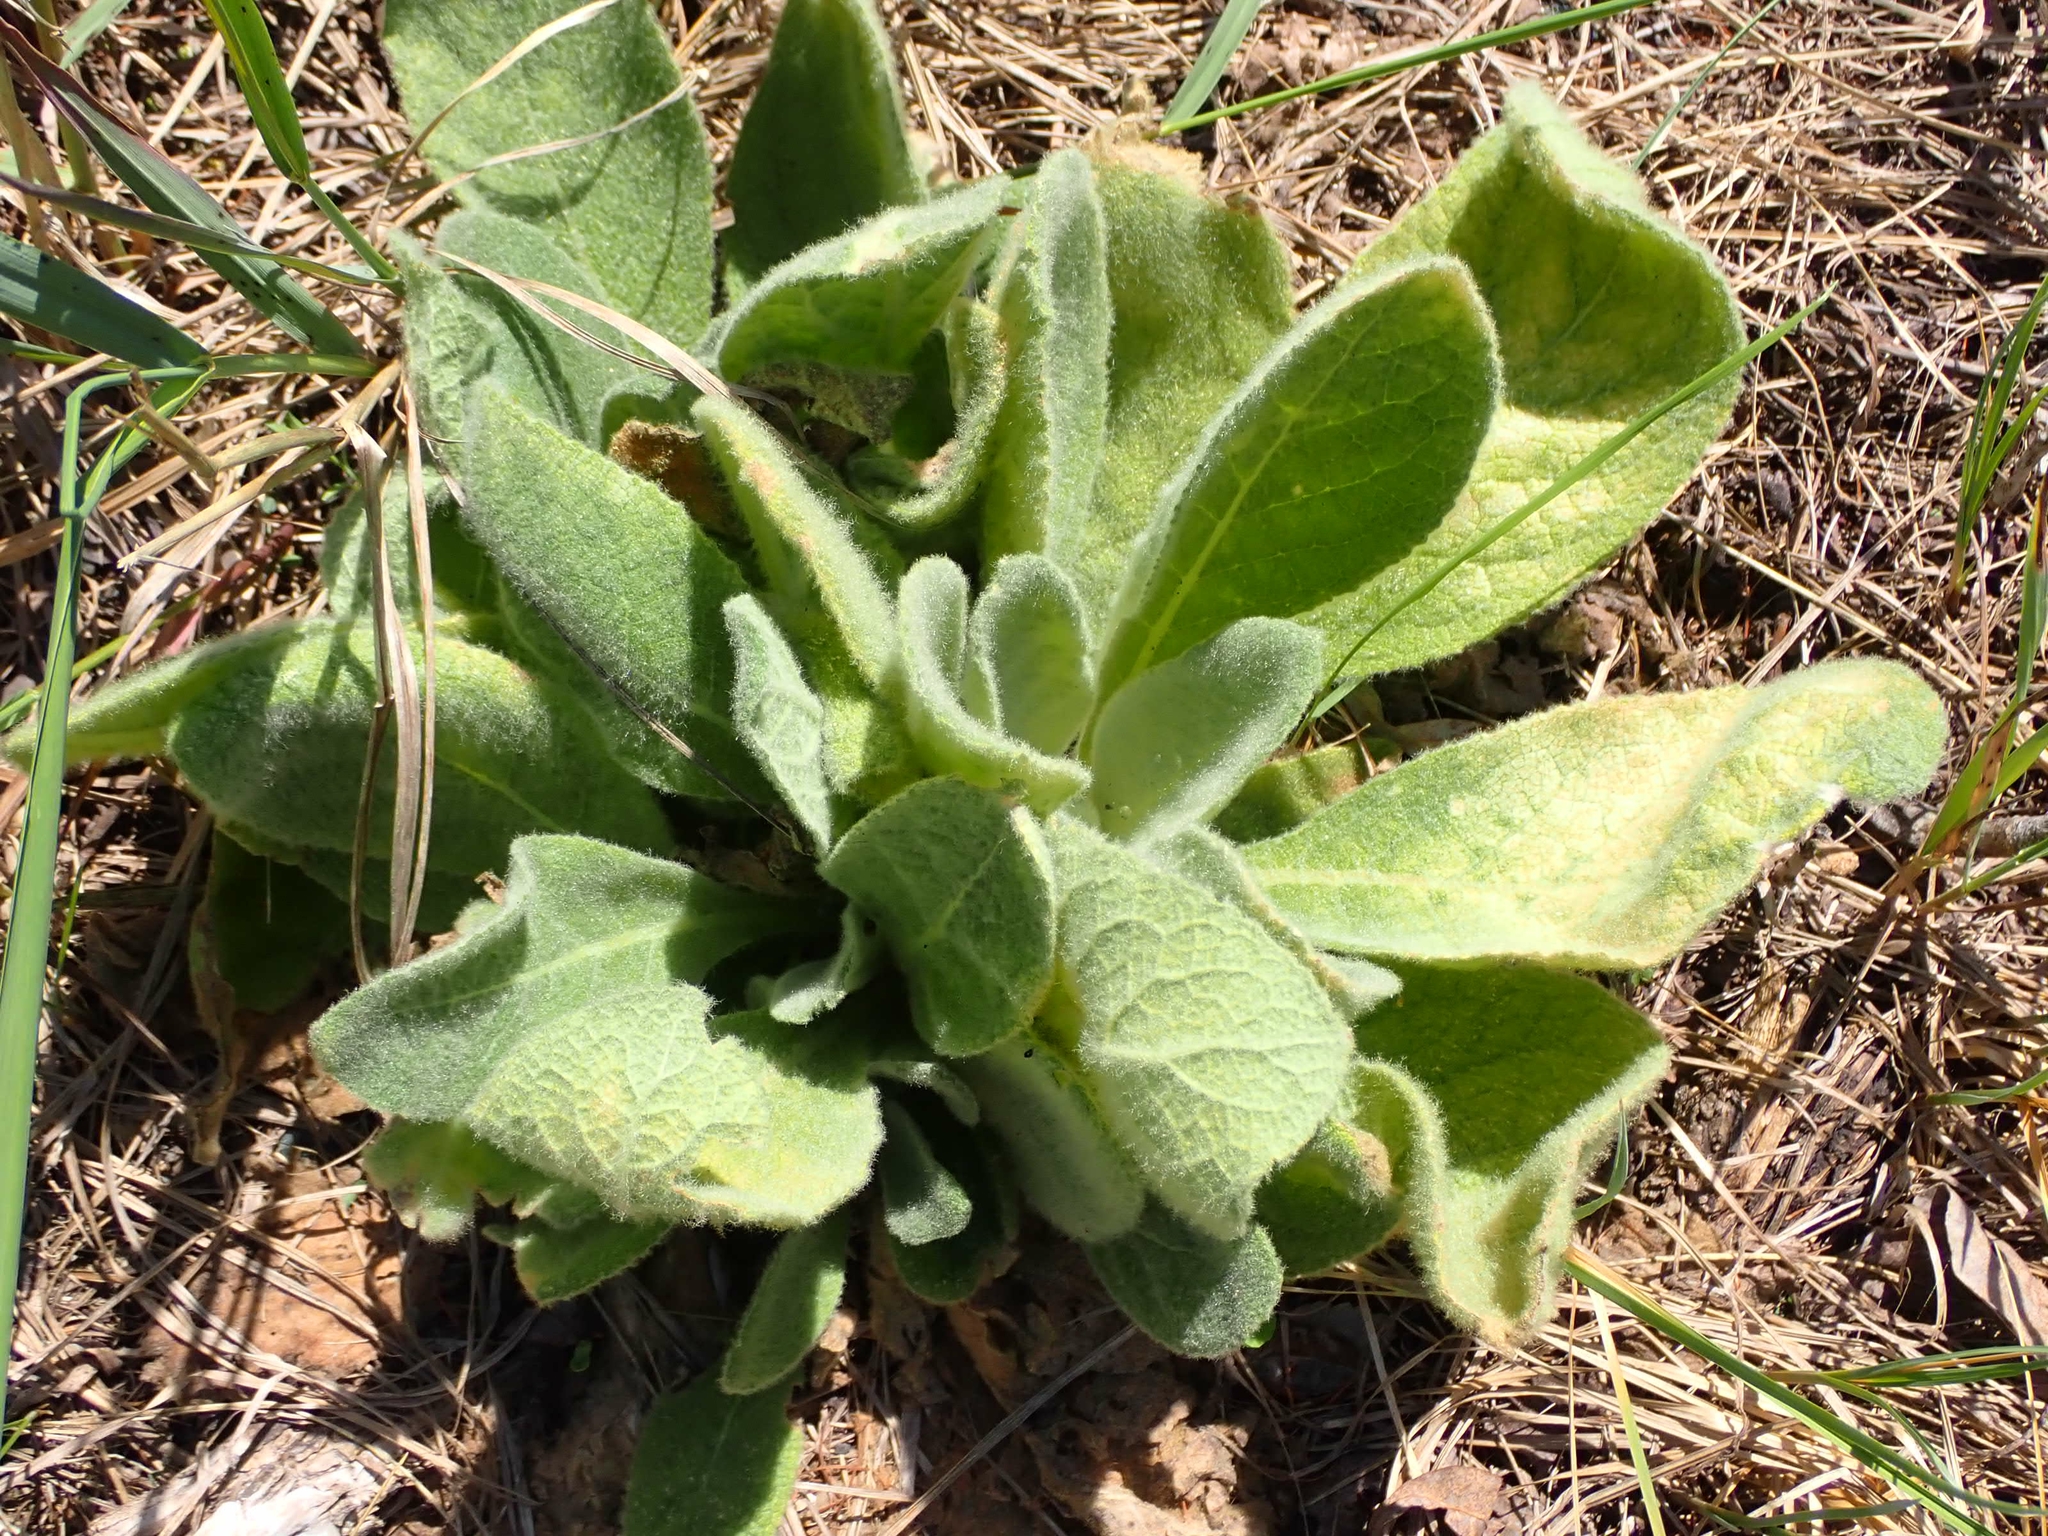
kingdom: Plantae
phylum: Tracheophyta
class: Magnoliopsida
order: Lamiales
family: Scrophulariaceae
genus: Verbascum
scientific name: Verbascum thapsus
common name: Common mullein
